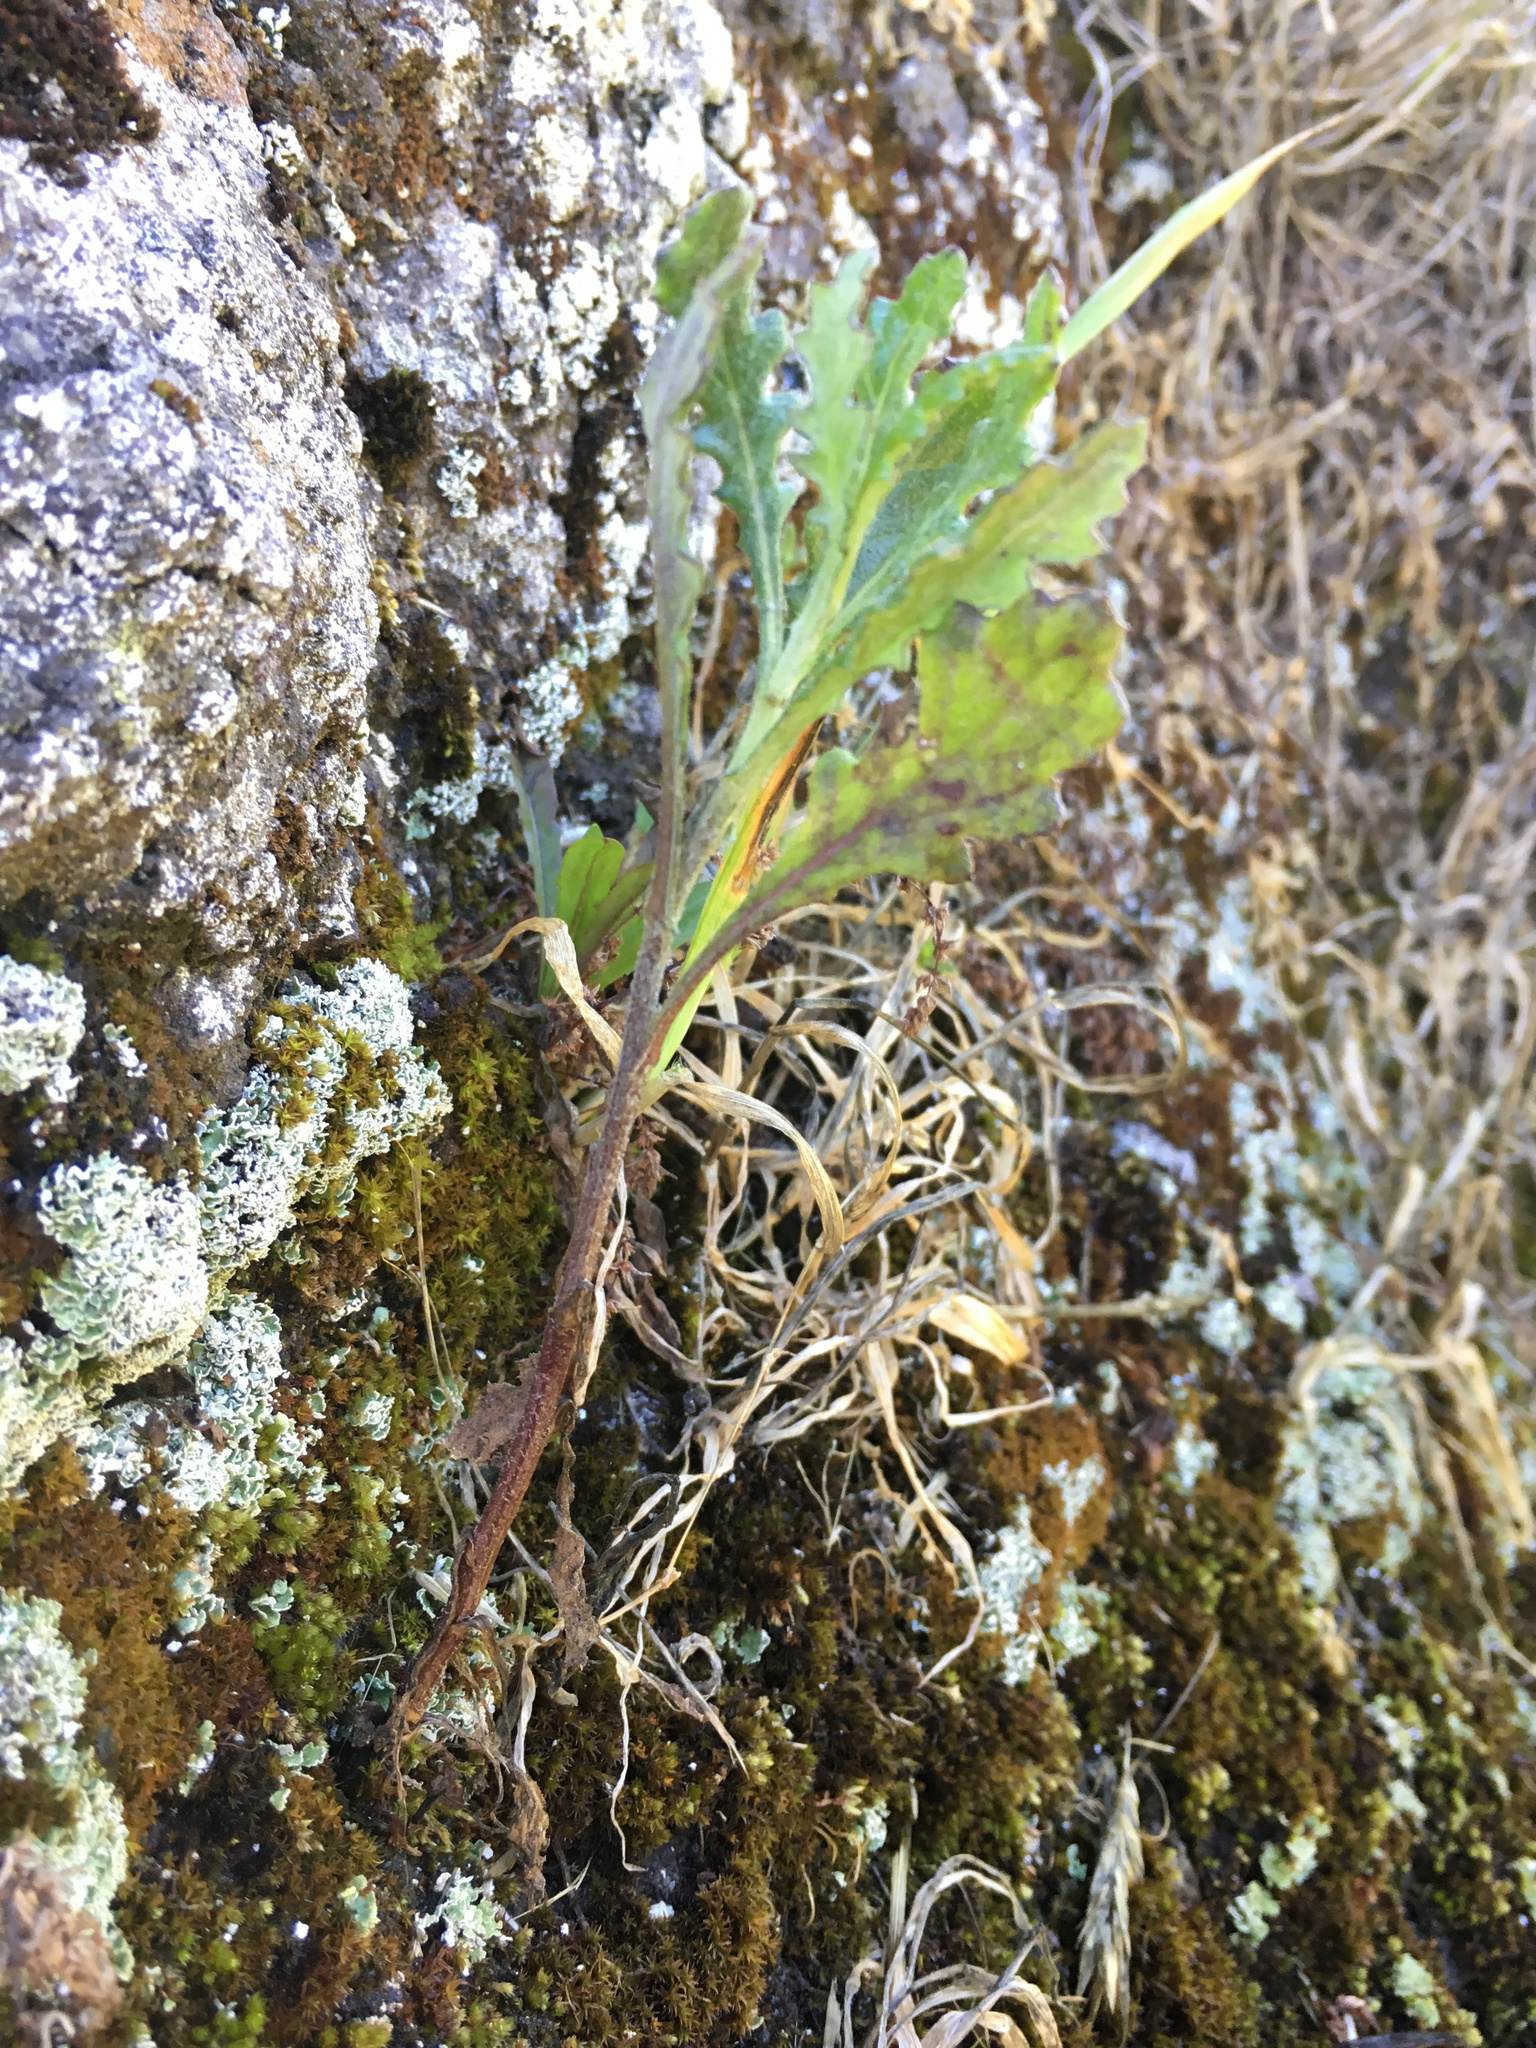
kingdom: Plantae
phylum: Tracheophyta
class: Magnoliopsida
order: Asterales
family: Asteraceae
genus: Senecio
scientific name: Senecio glomeratus
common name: Cutleaf burnweed
